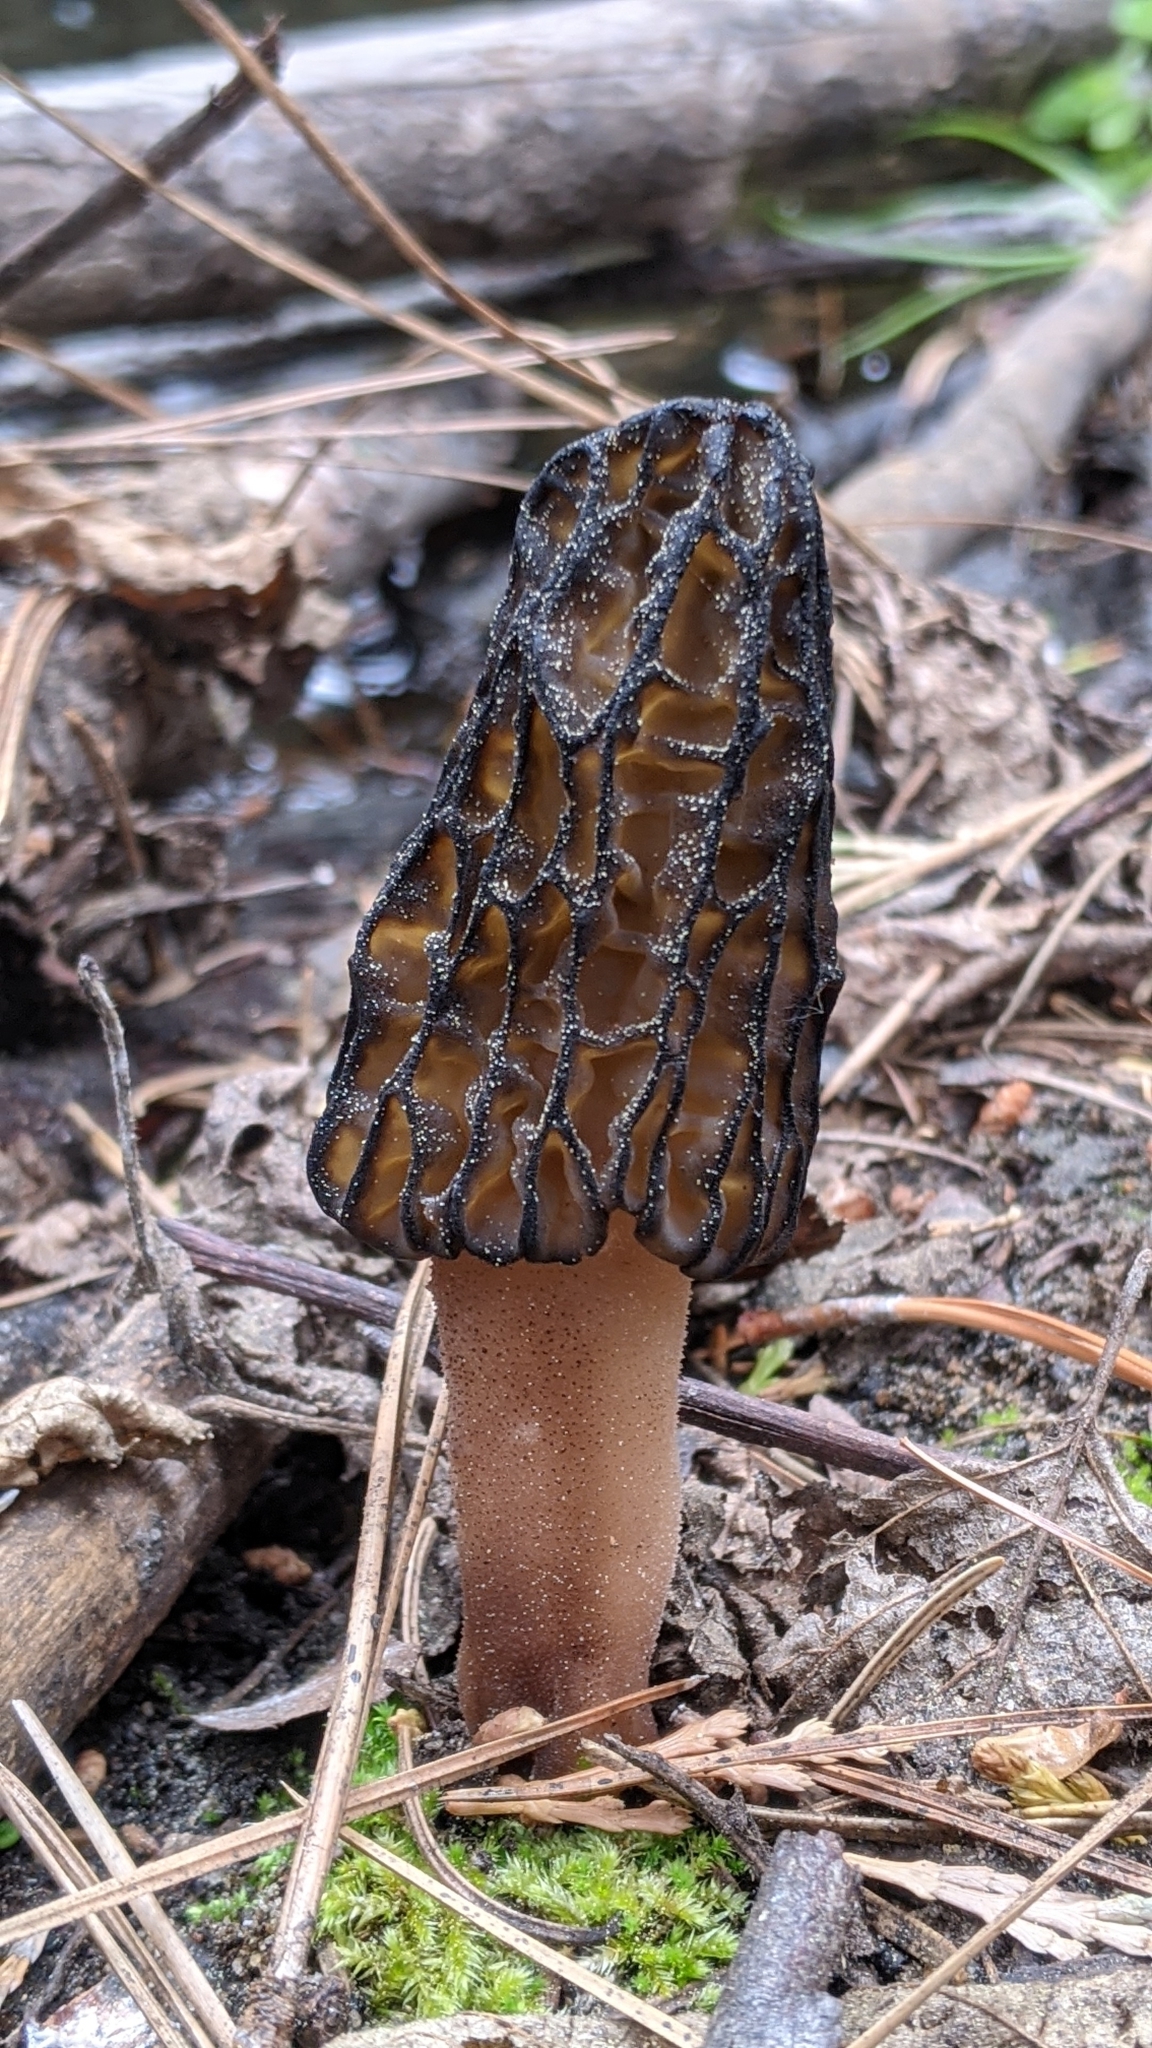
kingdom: Fungi
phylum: Ascomycota
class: Pezizomycetes
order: Pezizales
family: Morchellaceae
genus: Morchella
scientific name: Morchella brunnea
